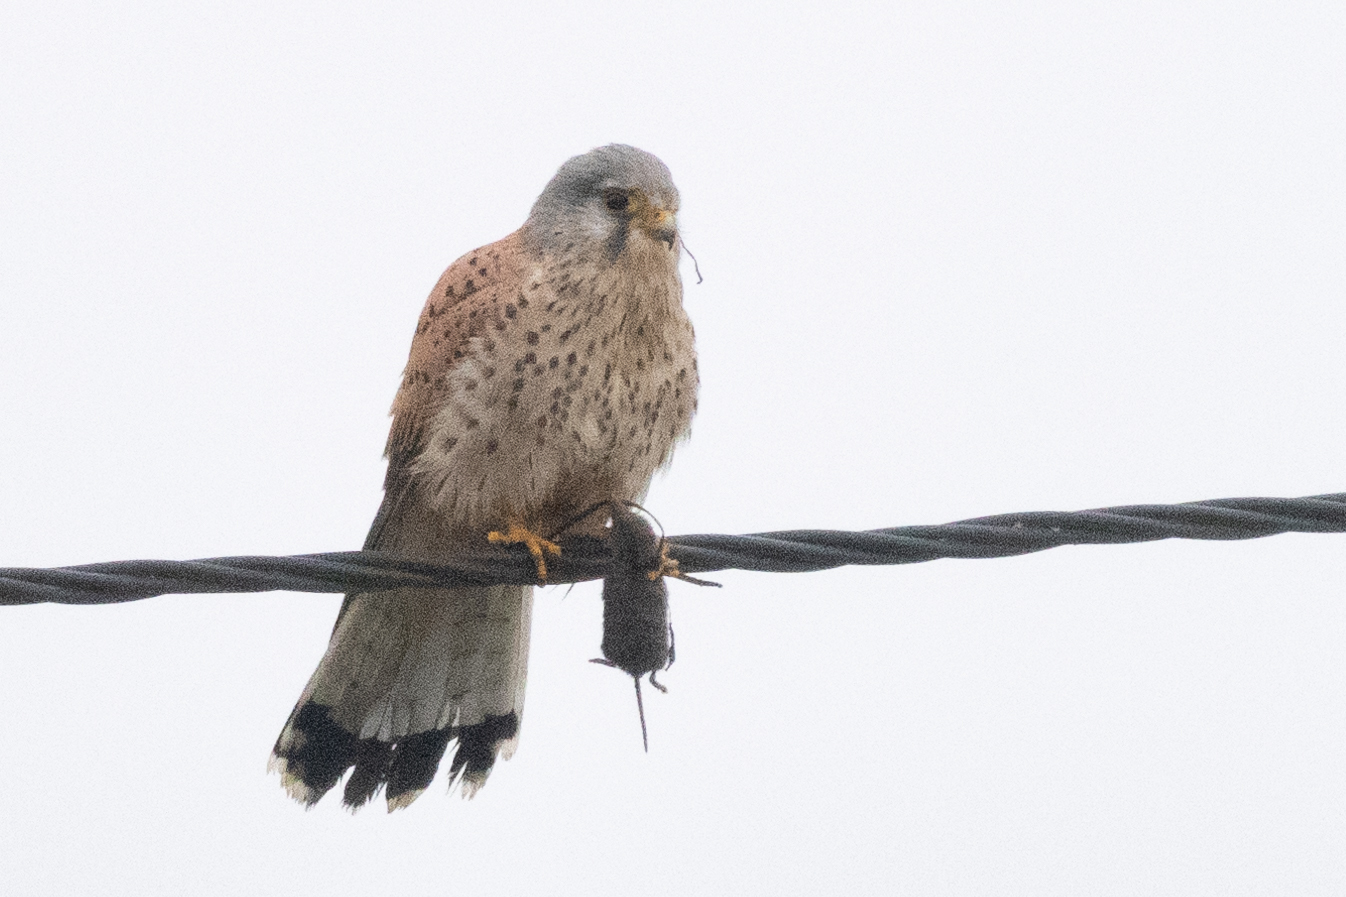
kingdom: Animalia
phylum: Chordata
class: Aves
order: Falconiformes
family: Falconidae
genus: Falco
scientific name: Falco tinnunculus
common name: Common kestrel
